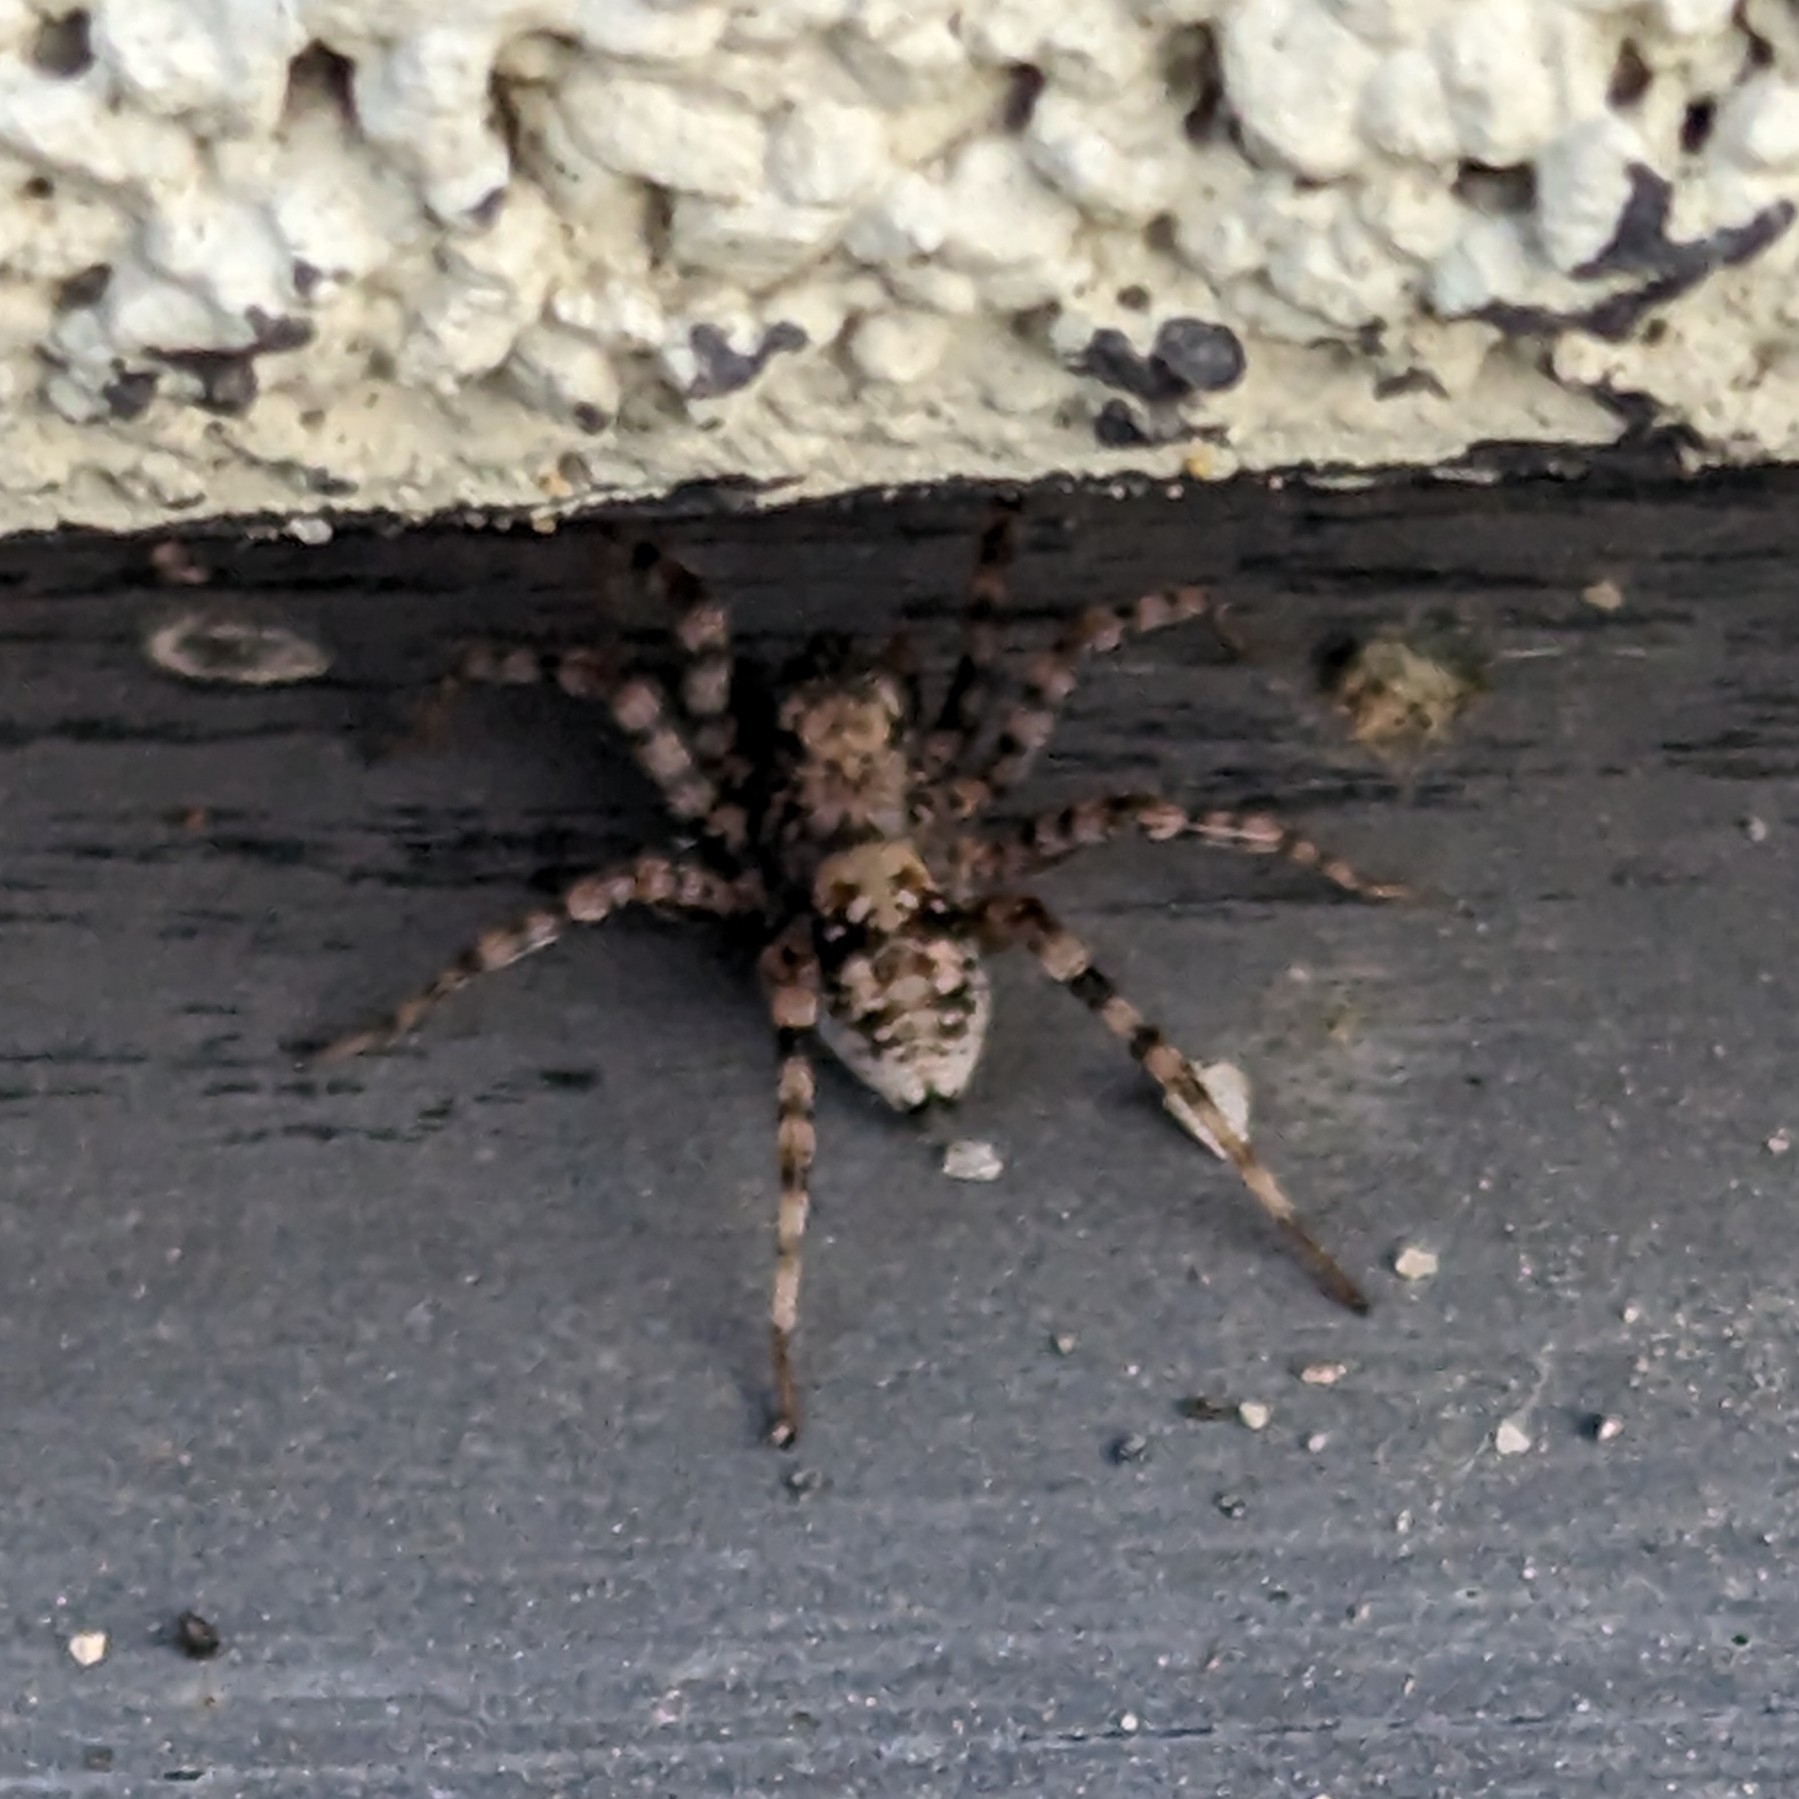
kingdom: Animalia
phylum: Arthropoda
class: Arachnida
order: Araneae
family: Lycosidae
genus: Arctosa
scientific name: Arctosa perita
